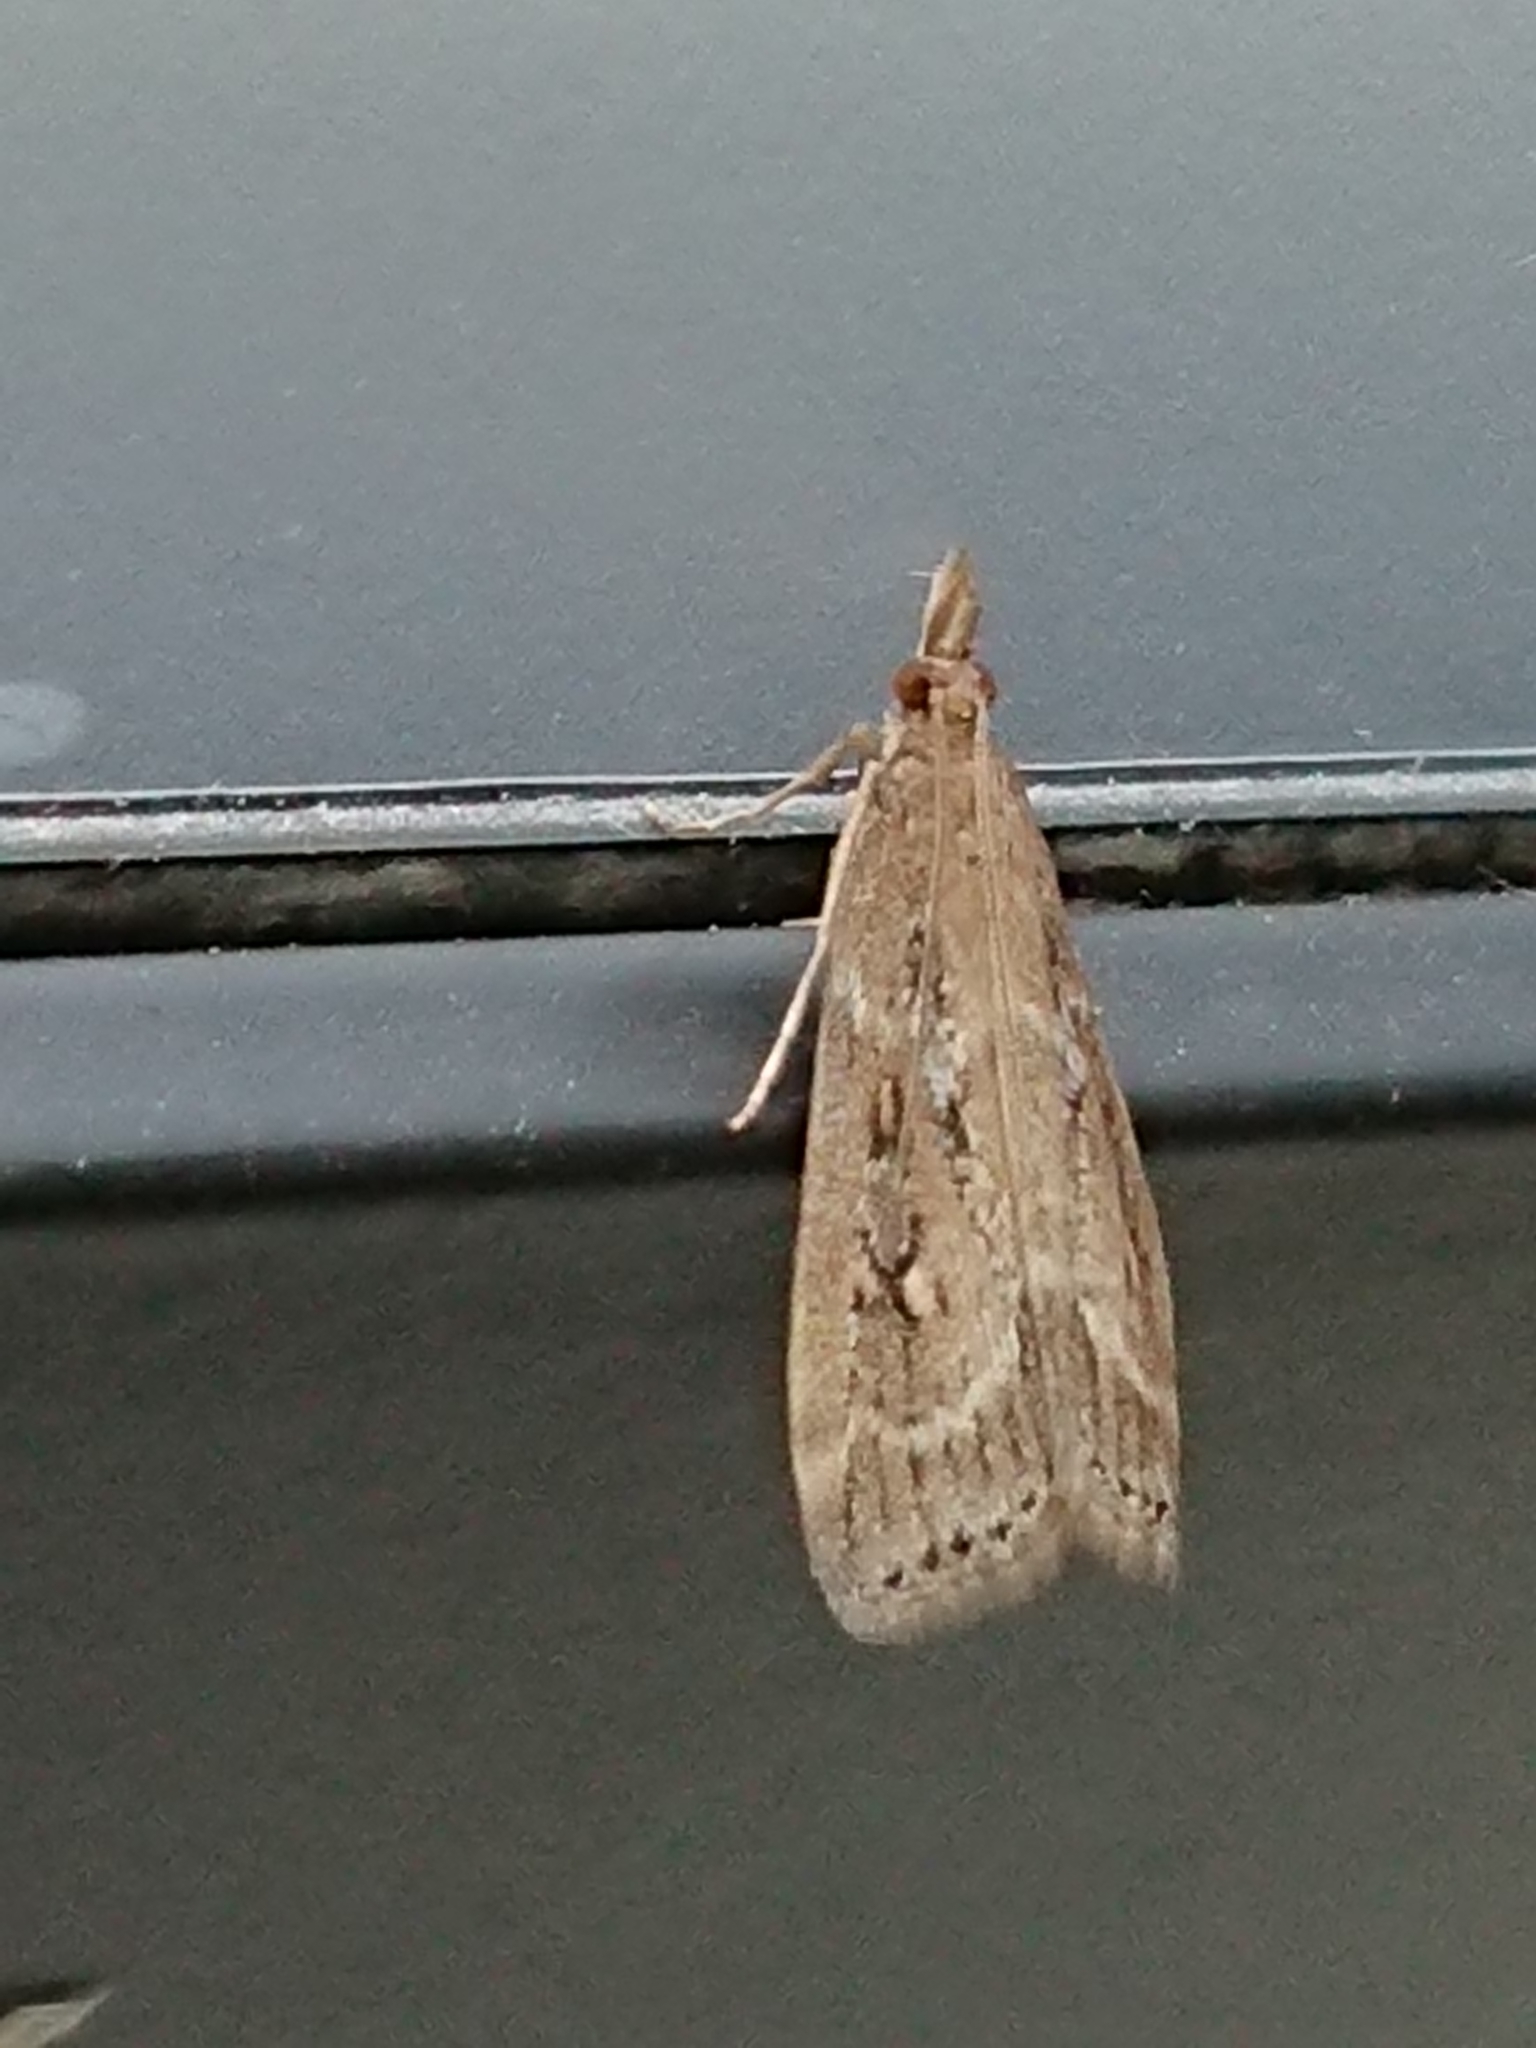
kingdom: Animalia
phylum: Arthropoda
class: Insecta
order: Lepidoptera
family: Crambidae
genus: Eudonia
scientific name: Eudonia octophora
